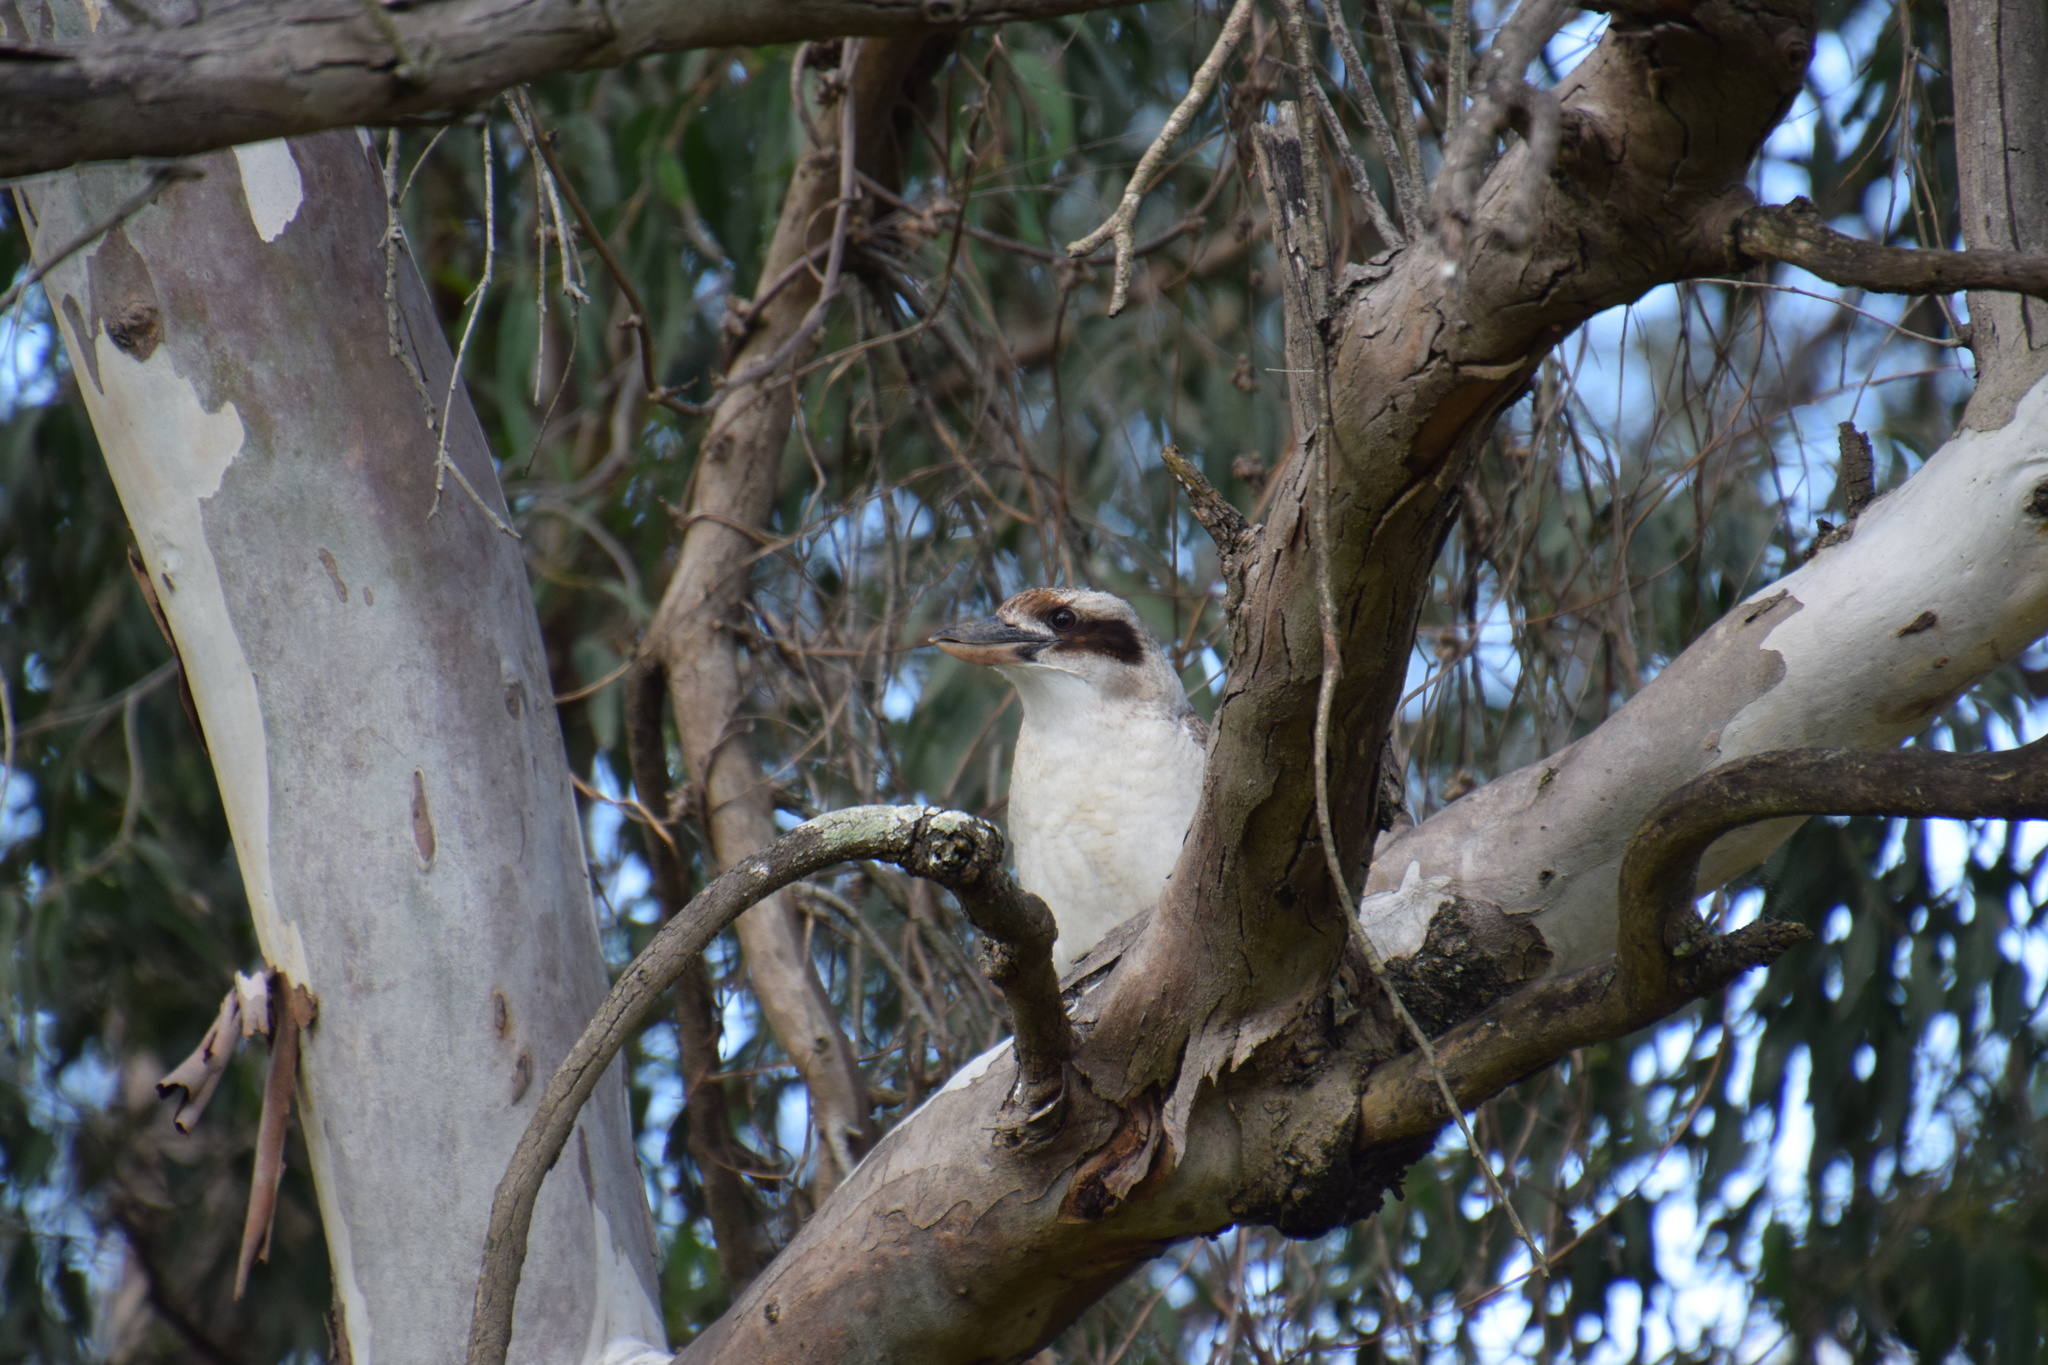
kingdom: Animalia
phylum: Chordata
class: Aves
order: Coraciiformes
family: Alcedinidae
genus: Dacelo
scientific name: Dacelo novaeguineae
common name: Laughing kookaburra
